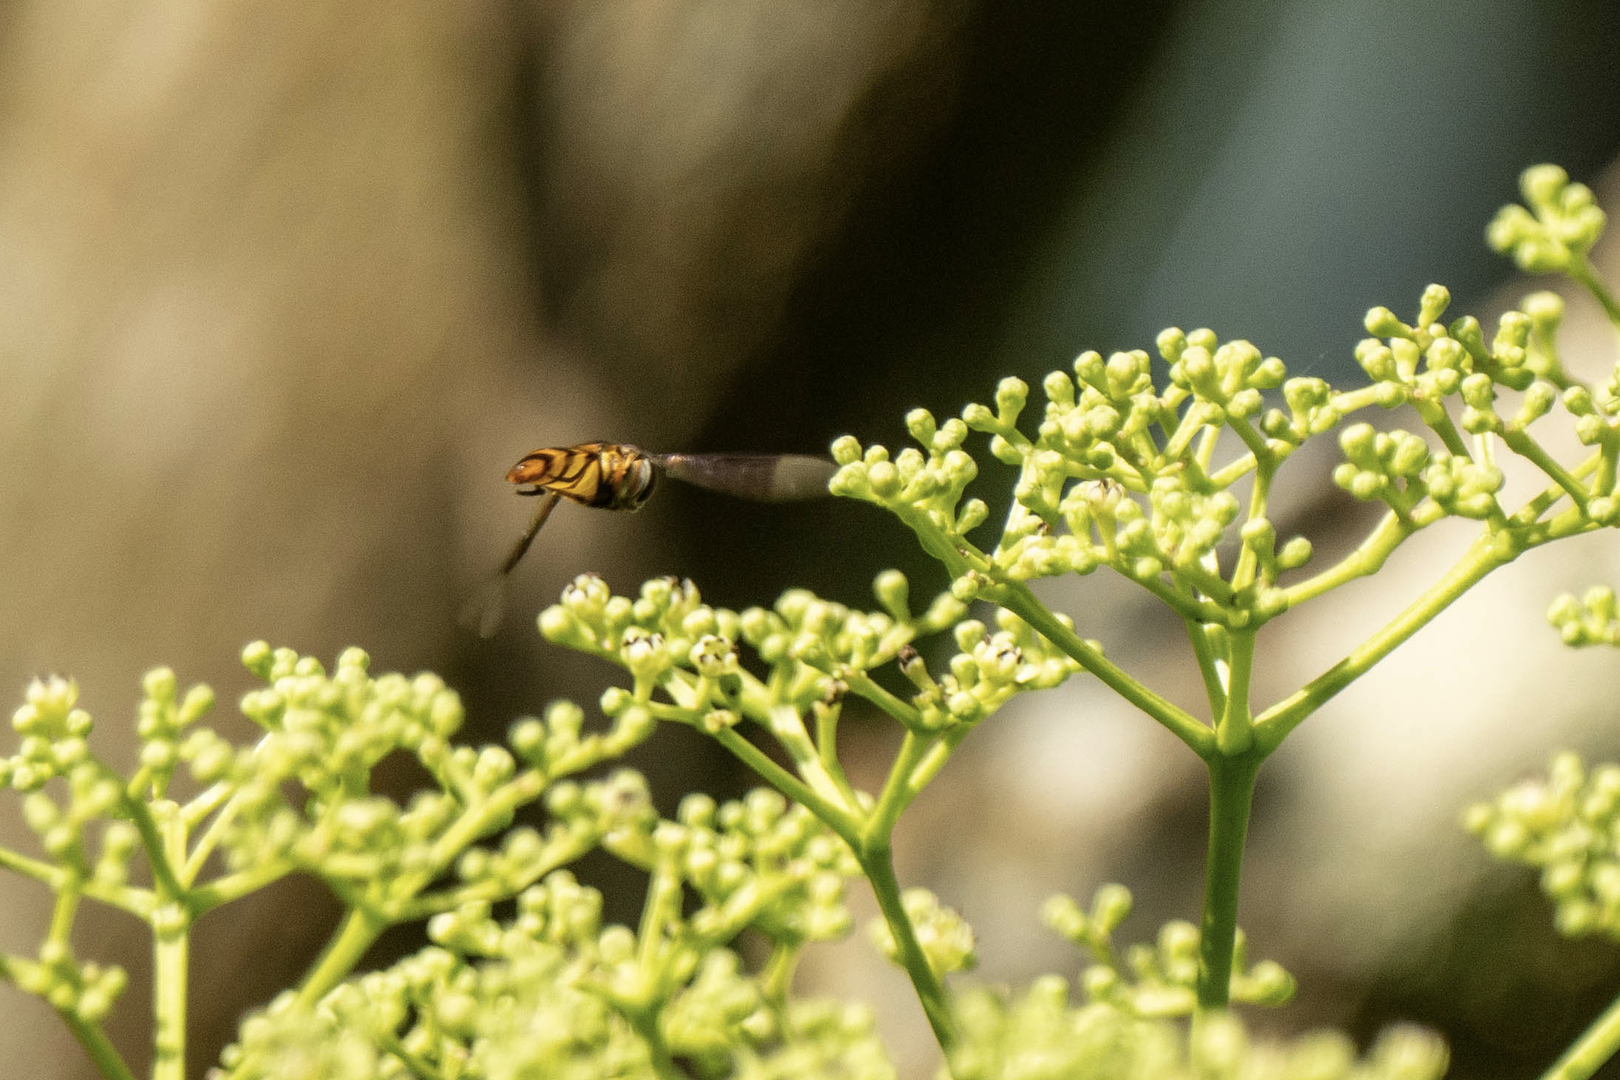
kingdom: Animalia
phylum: Arthropoda
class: Insecta
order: Diptera
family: Syrphidae
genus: Dideopsis
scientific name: Dideopsis aegrota
